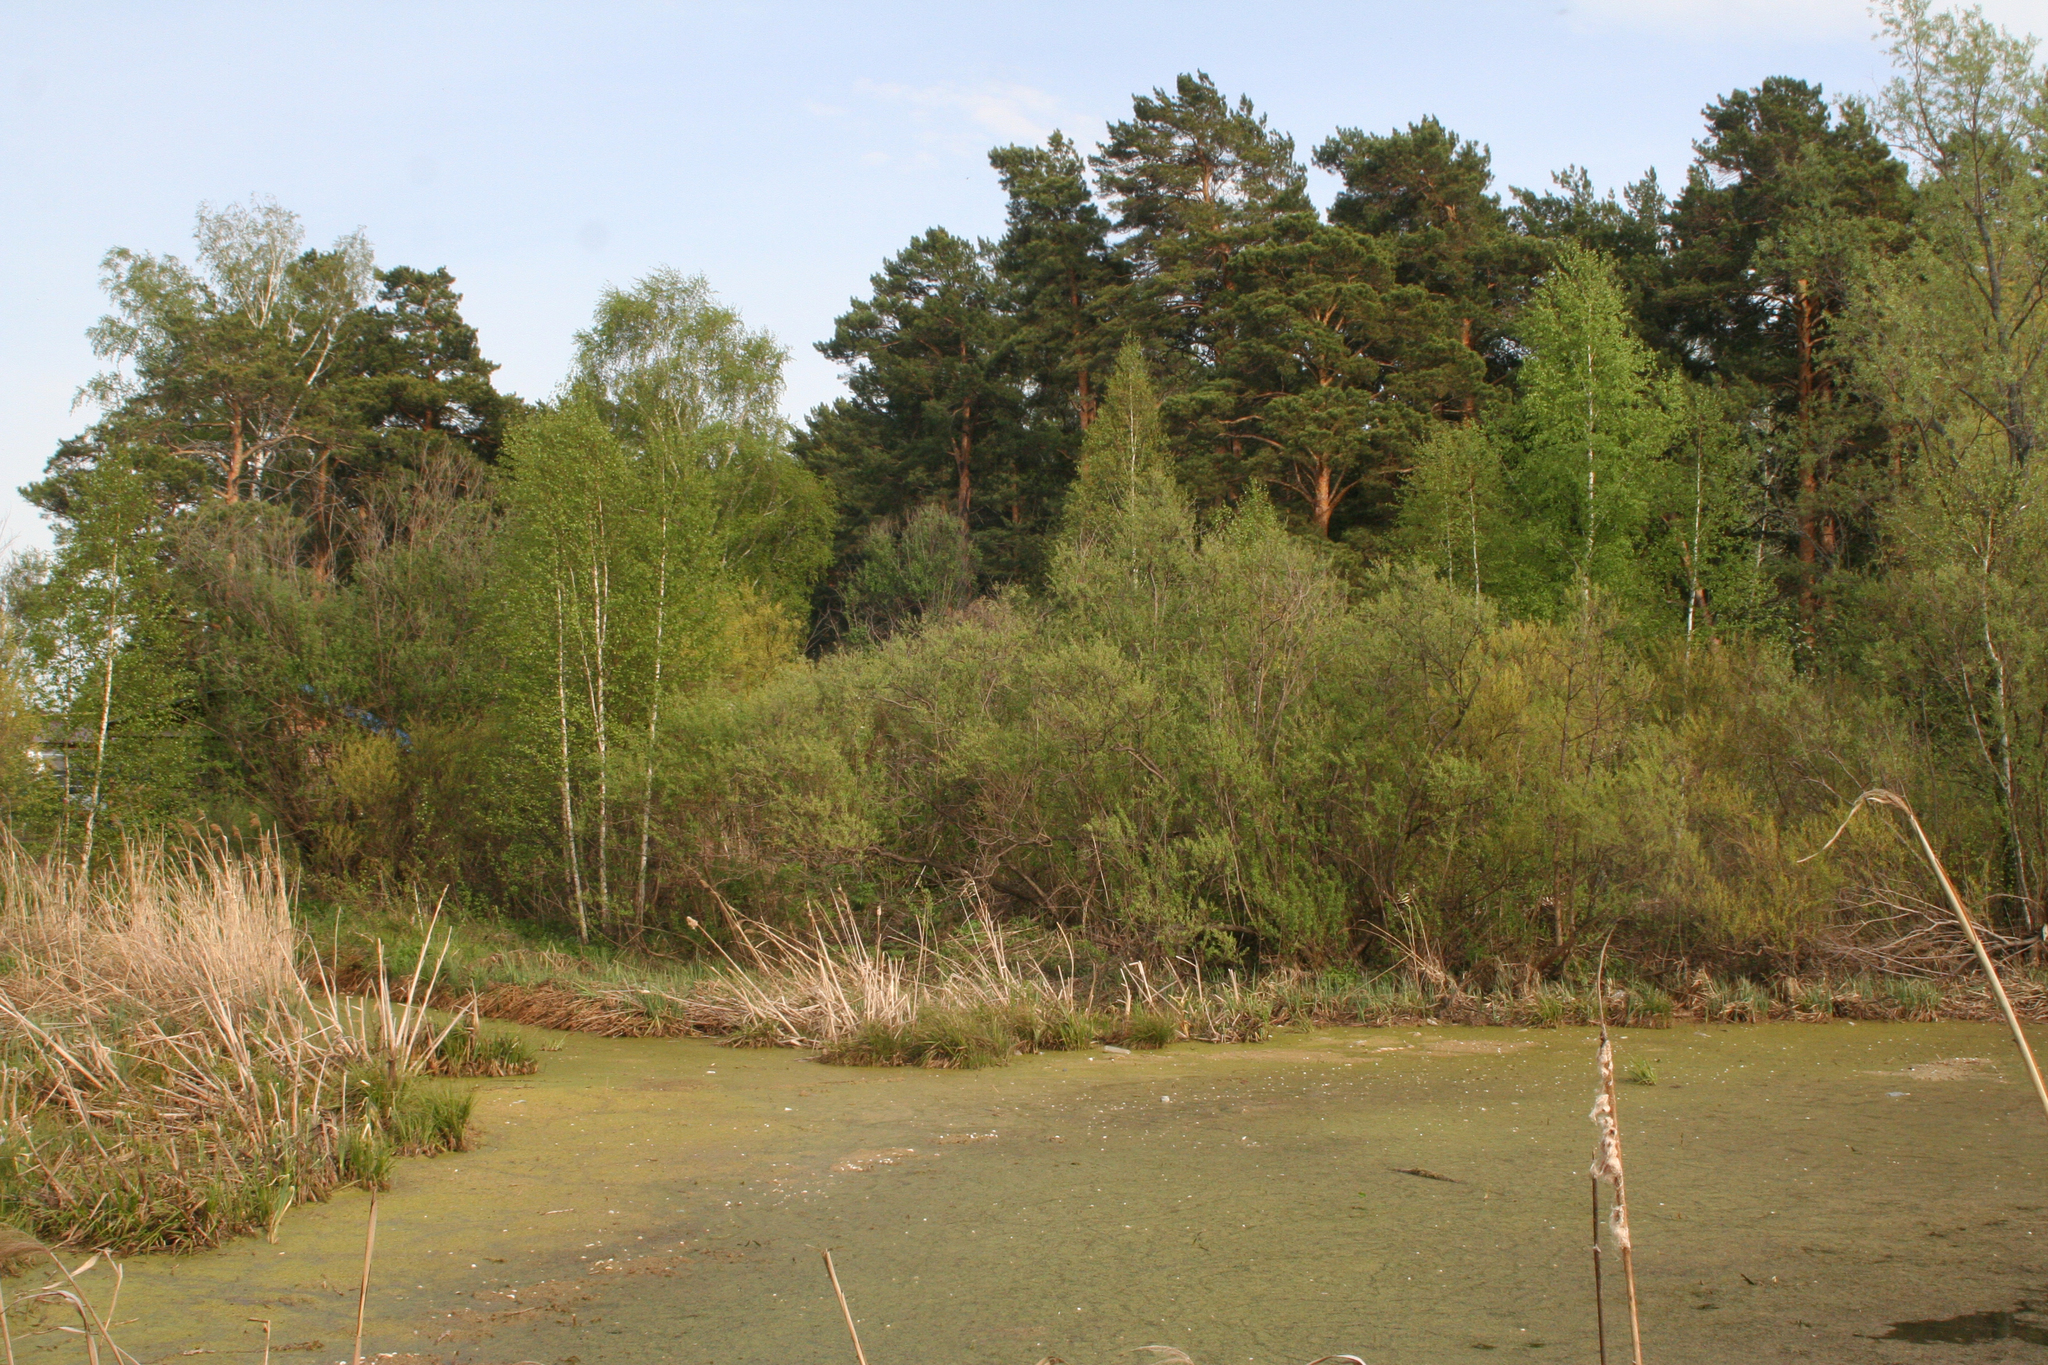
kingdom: Plantae
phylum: Tracheophyta
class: Pinopsida
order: Pinales
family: Pinaceae
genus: Pinus
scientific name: Pinus sylvestris
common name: Scots pine
